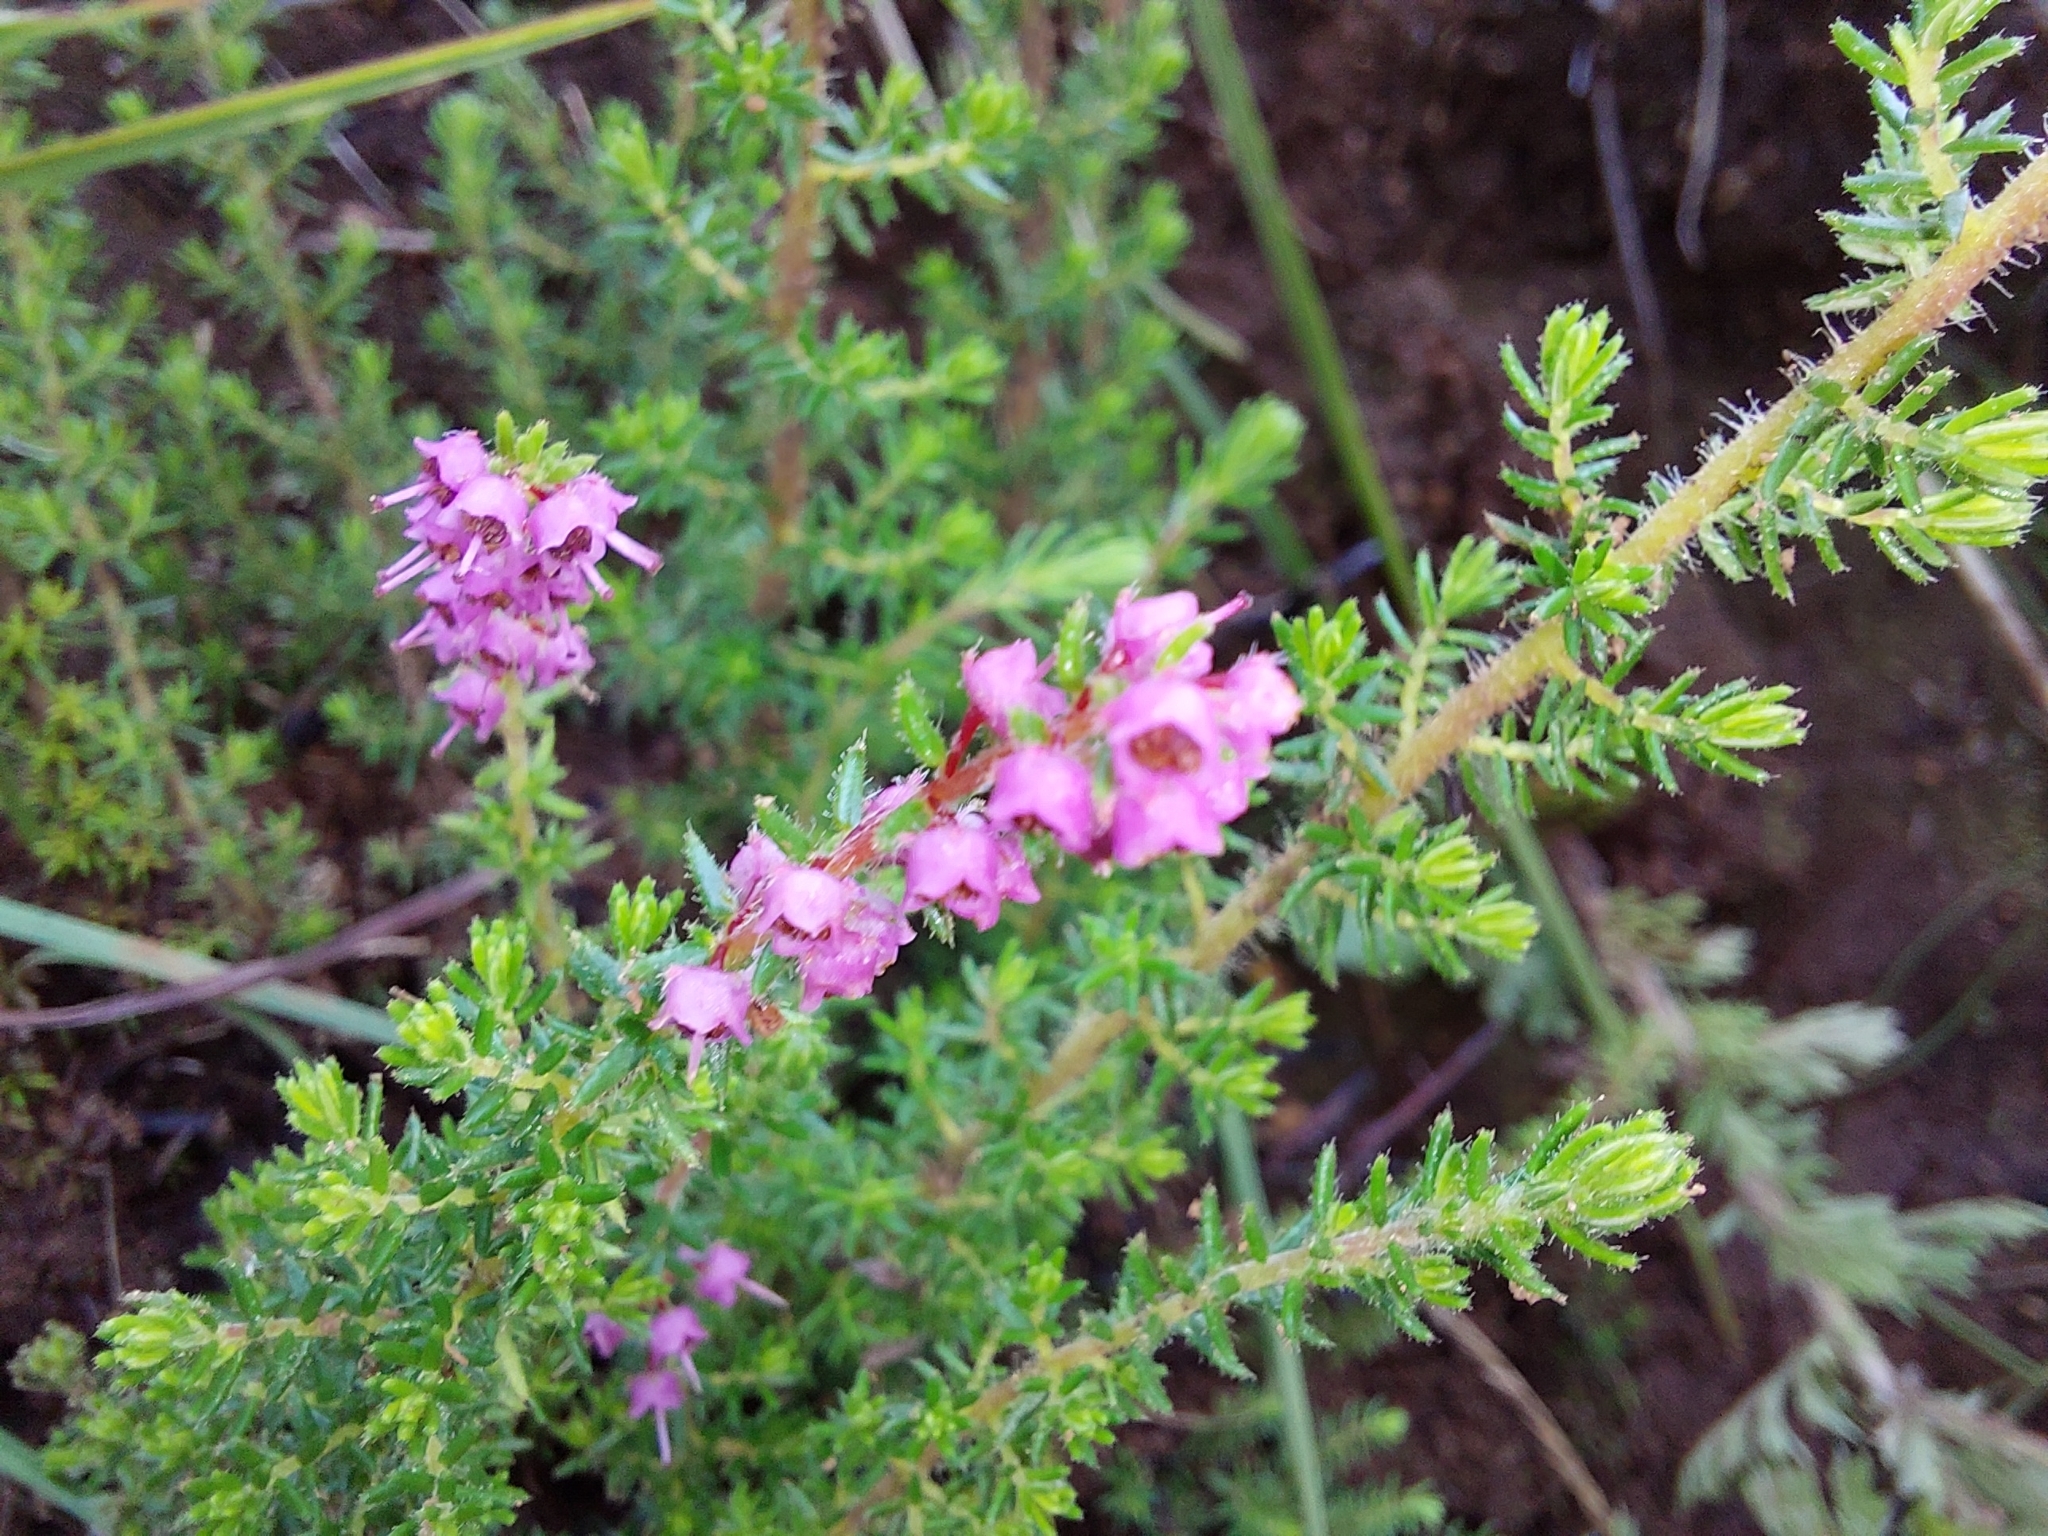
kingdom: Plantae
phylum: Tracheophyta
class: Magnoliopsida
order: Ericales
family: Ericaceae
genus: Erica
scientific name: Erica woodii
